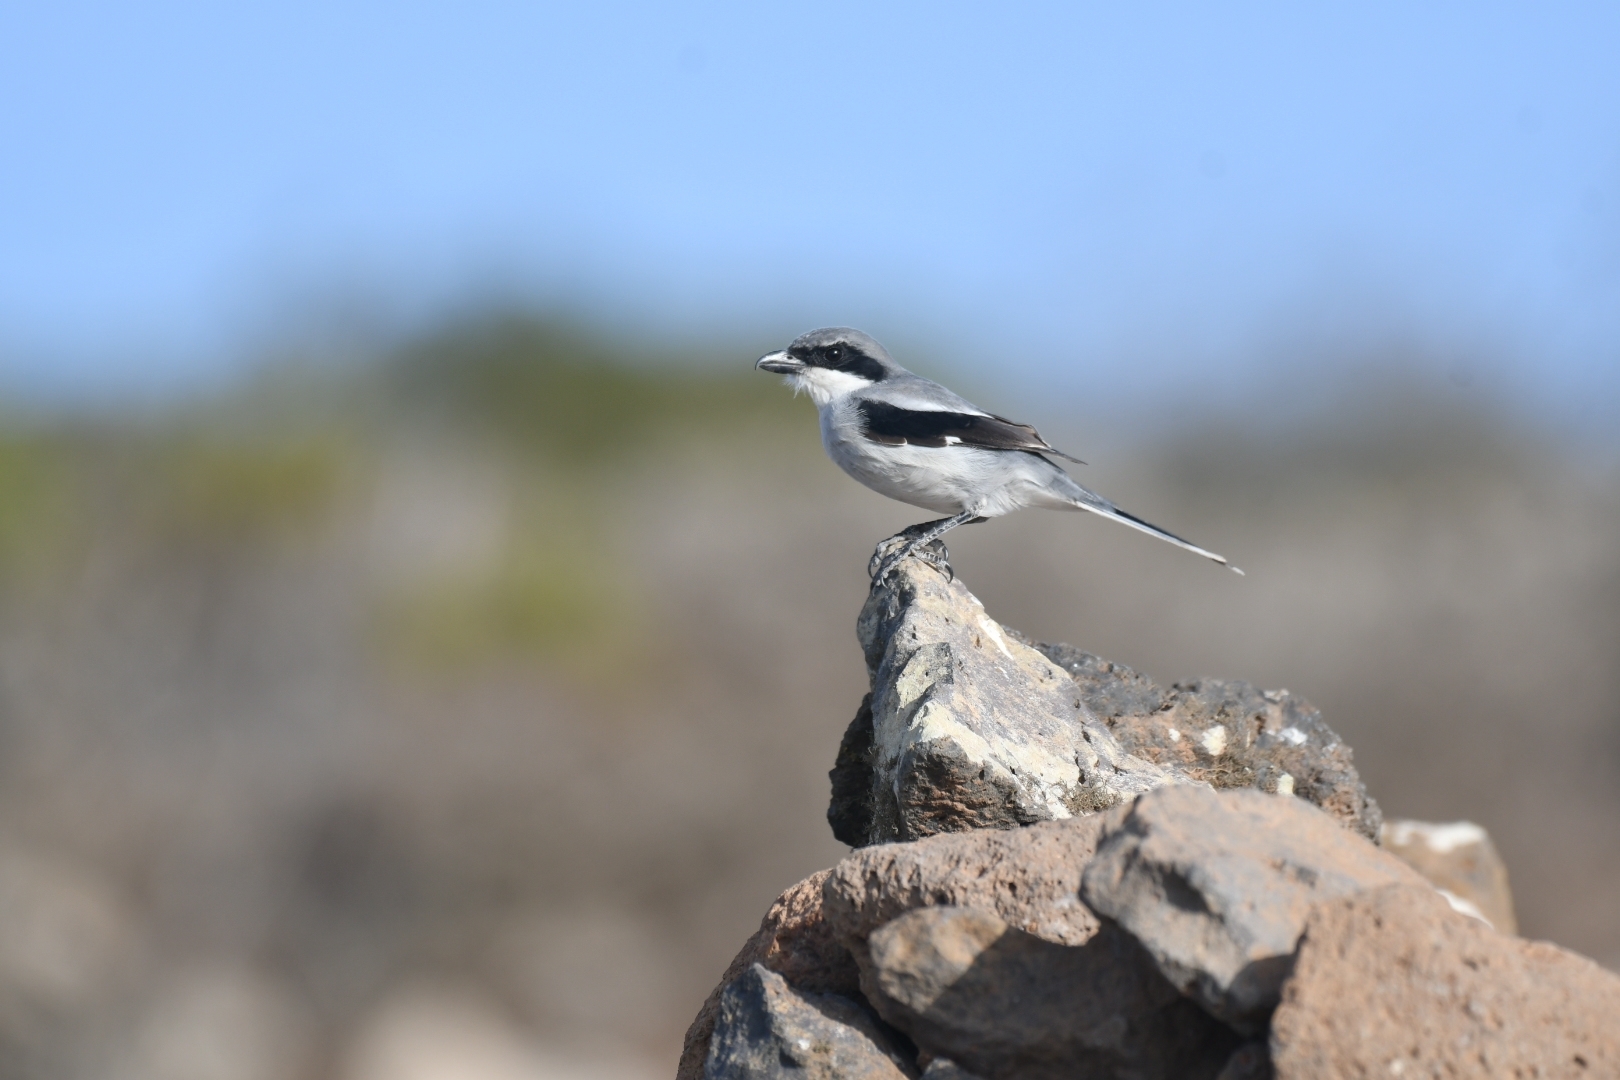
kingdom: Animalia
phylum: Chordata
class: Aves
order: Passeriformes
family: Laniidae
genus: Lanius
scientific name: Lanius excubitor
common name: Great grey shrike
